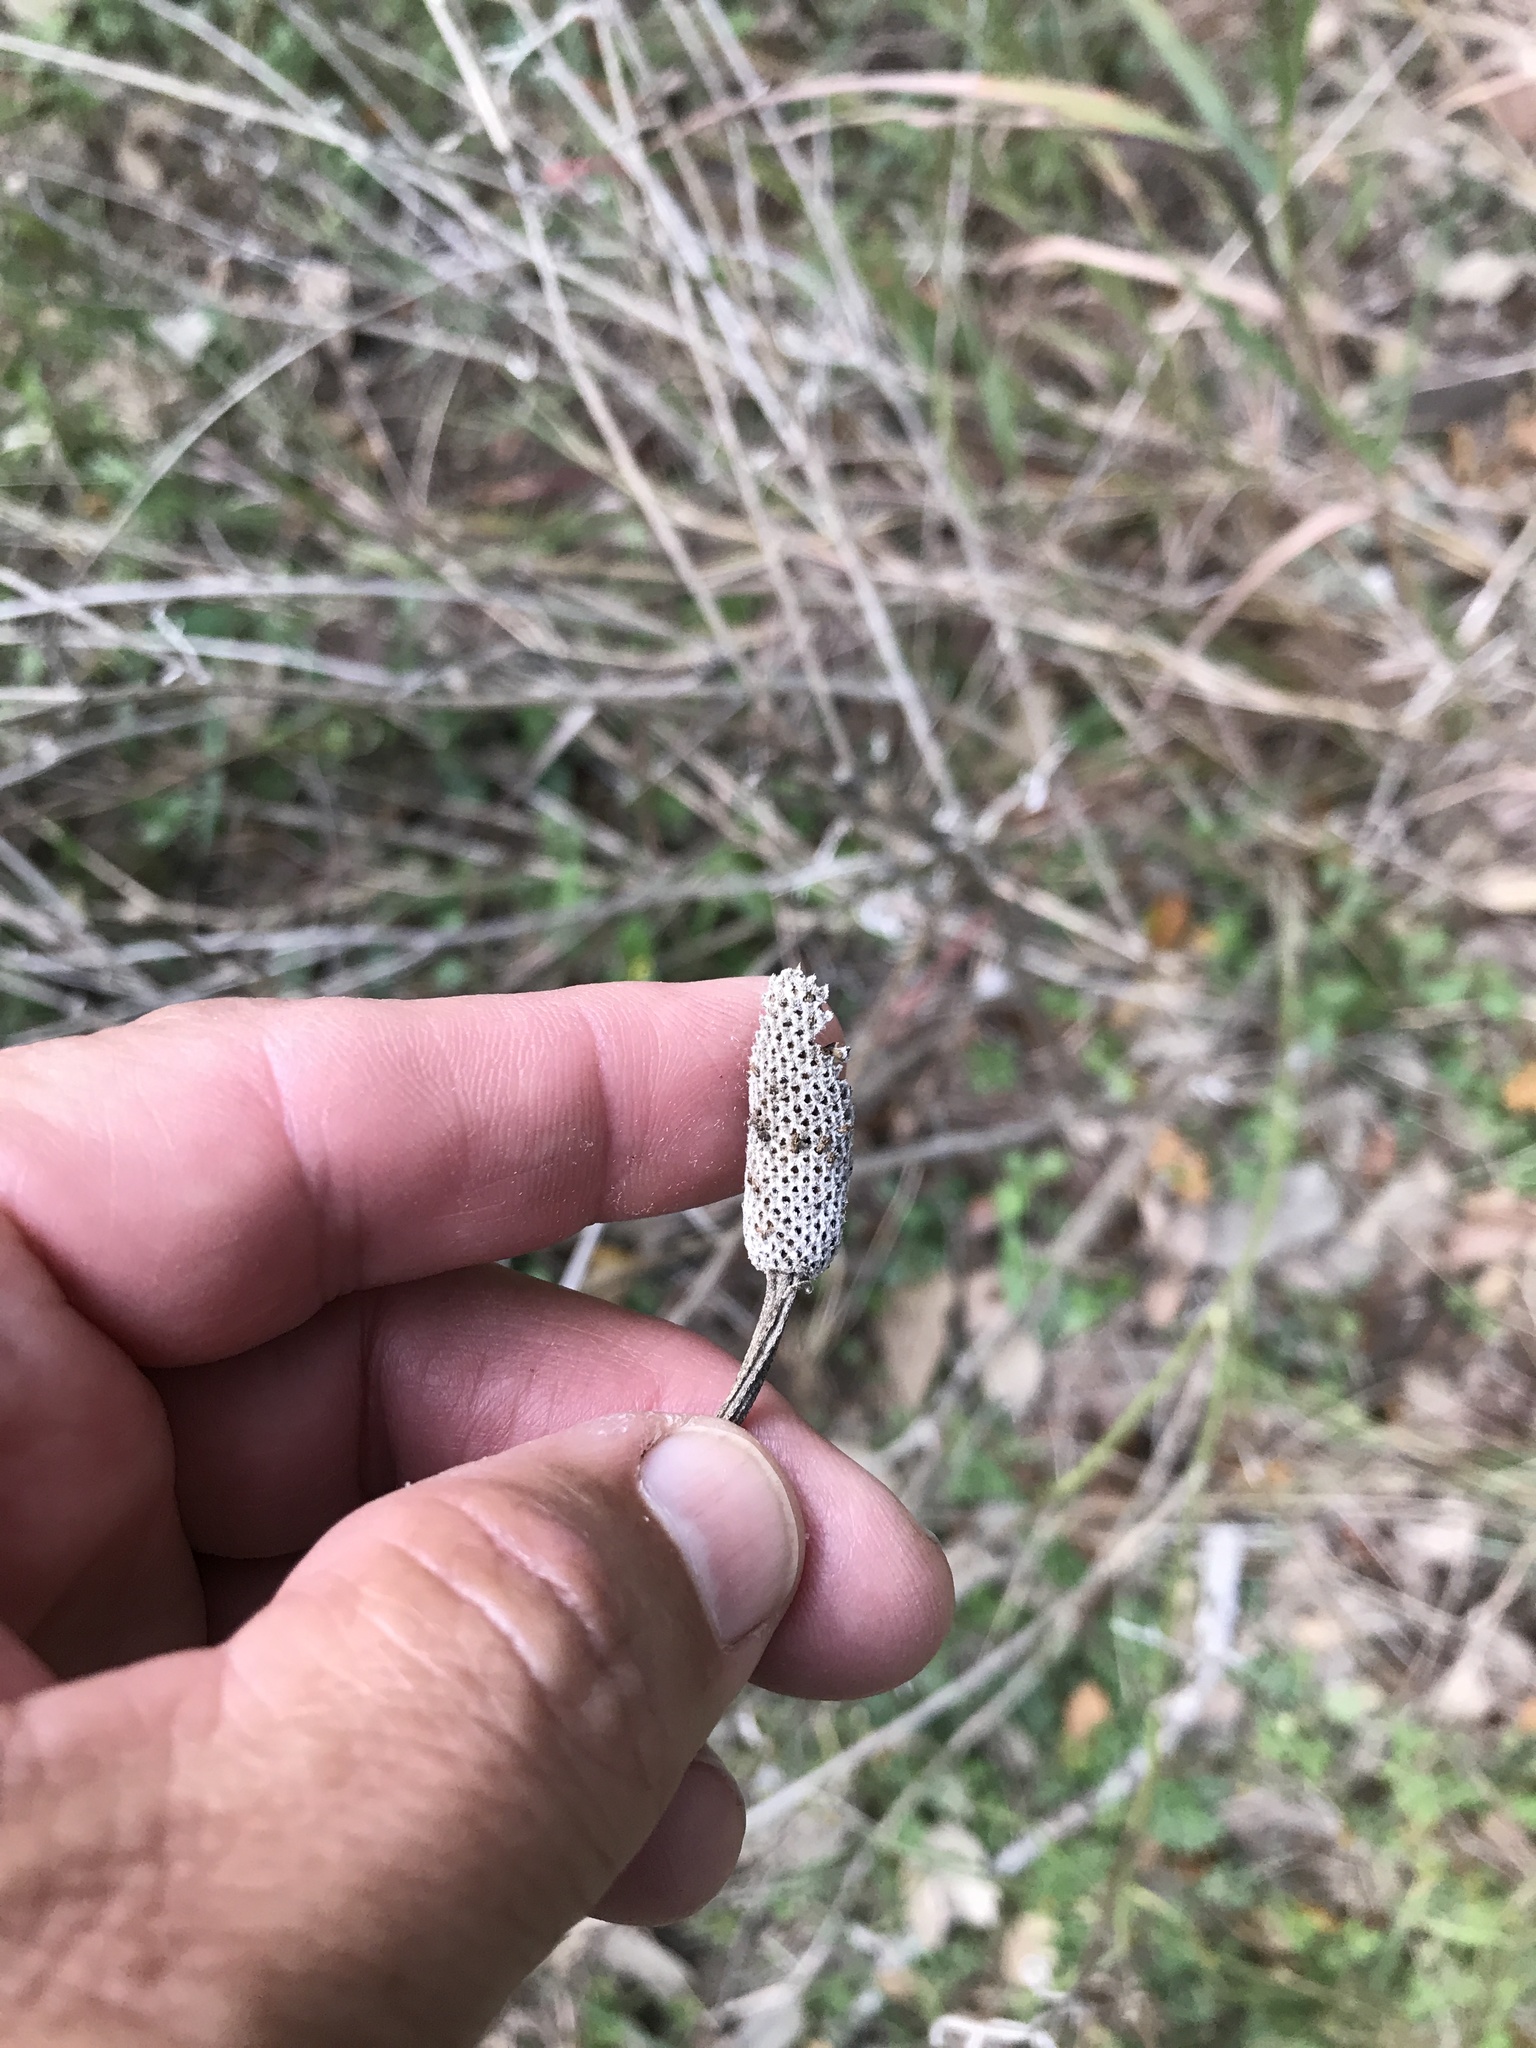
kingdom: Plantae
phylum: Tracheophyta
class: Magnoliopsida
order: Asterales
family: Asteraceae
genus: Ratibida
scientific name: Ratibida columnifera
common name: Prairie coneflower
